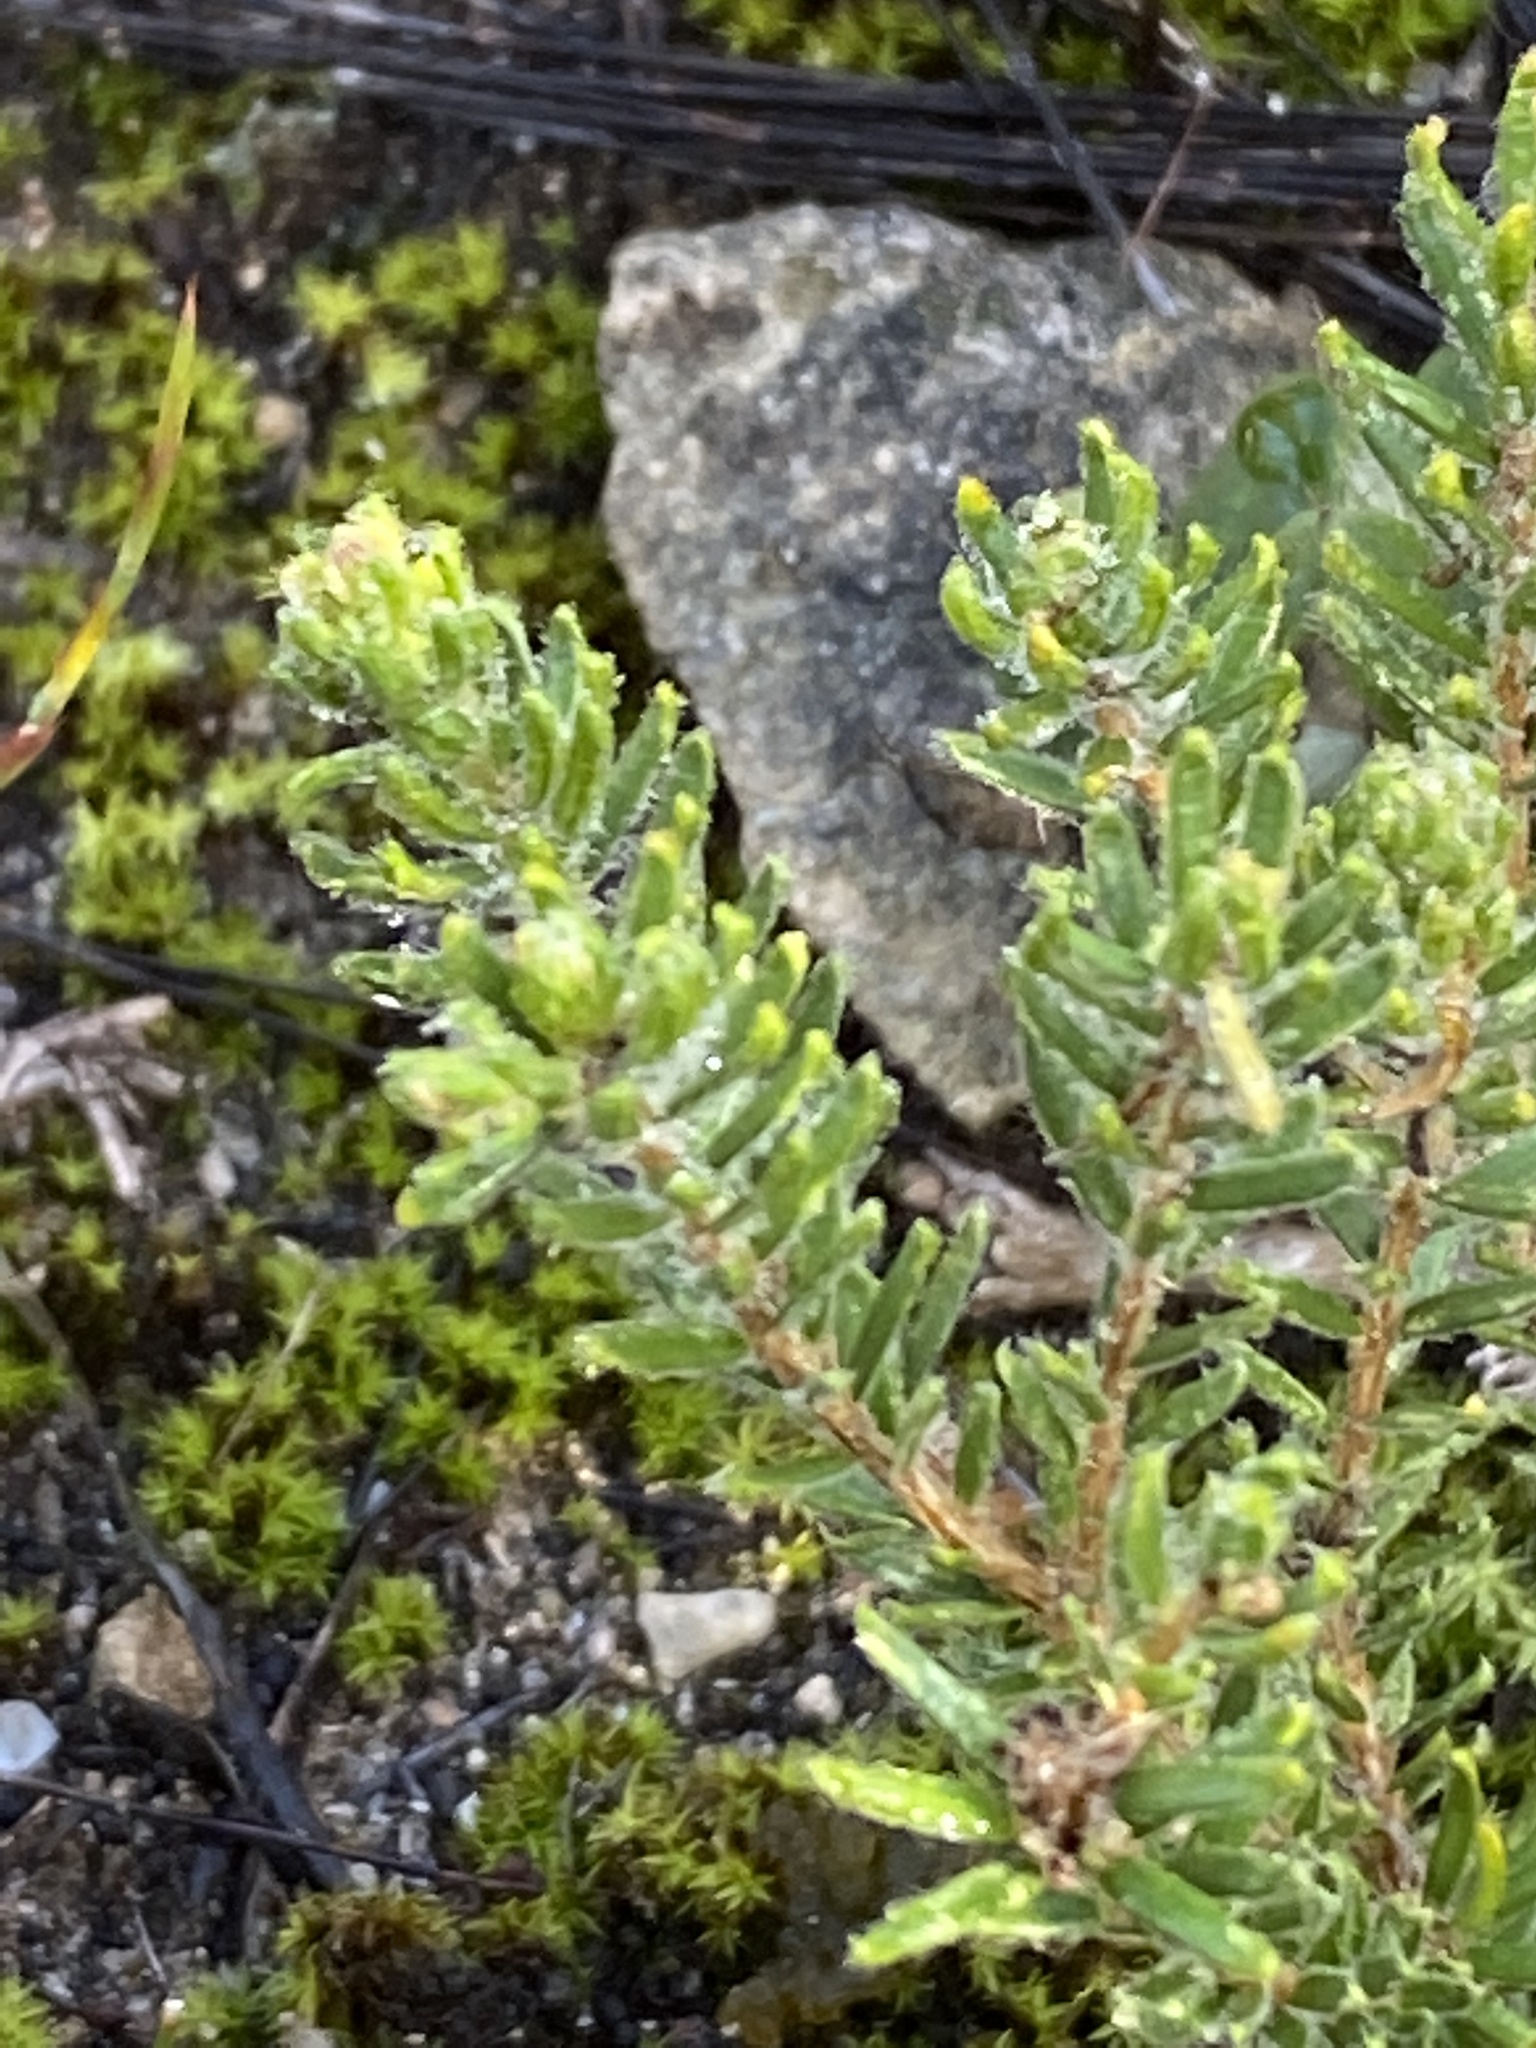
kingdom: Plantae
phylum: Tracheophyta
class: Magnoliopsida
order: Sapindales
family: Rutaceae
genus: Agathosma
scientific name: Agathosma robusta
